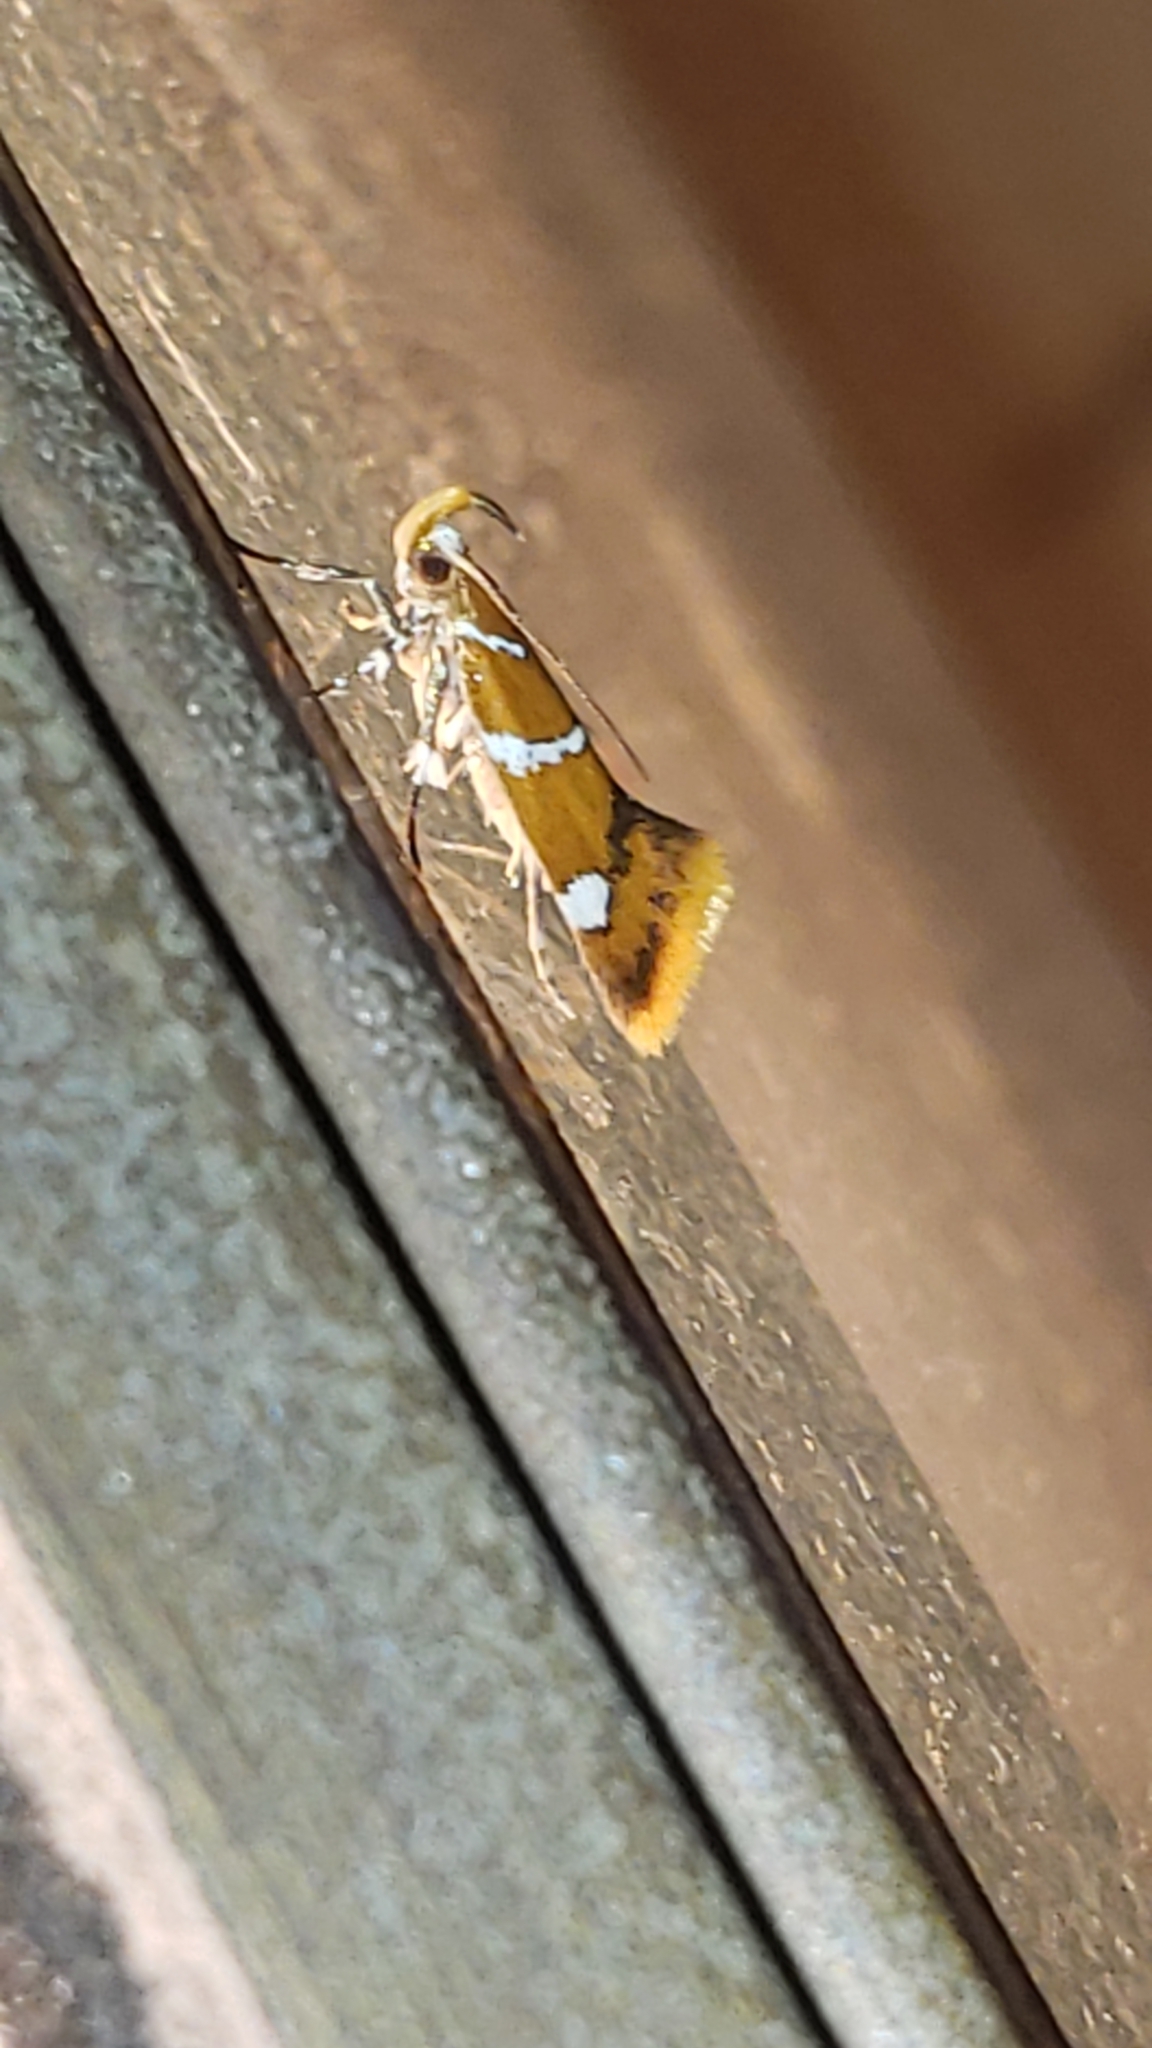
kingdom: Animalia
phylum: Arthropoda
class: Insecta
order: Lepidoptera
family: Oecophoridae
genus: Promalactis
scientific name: Promalactis suzukiella
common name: Moth
